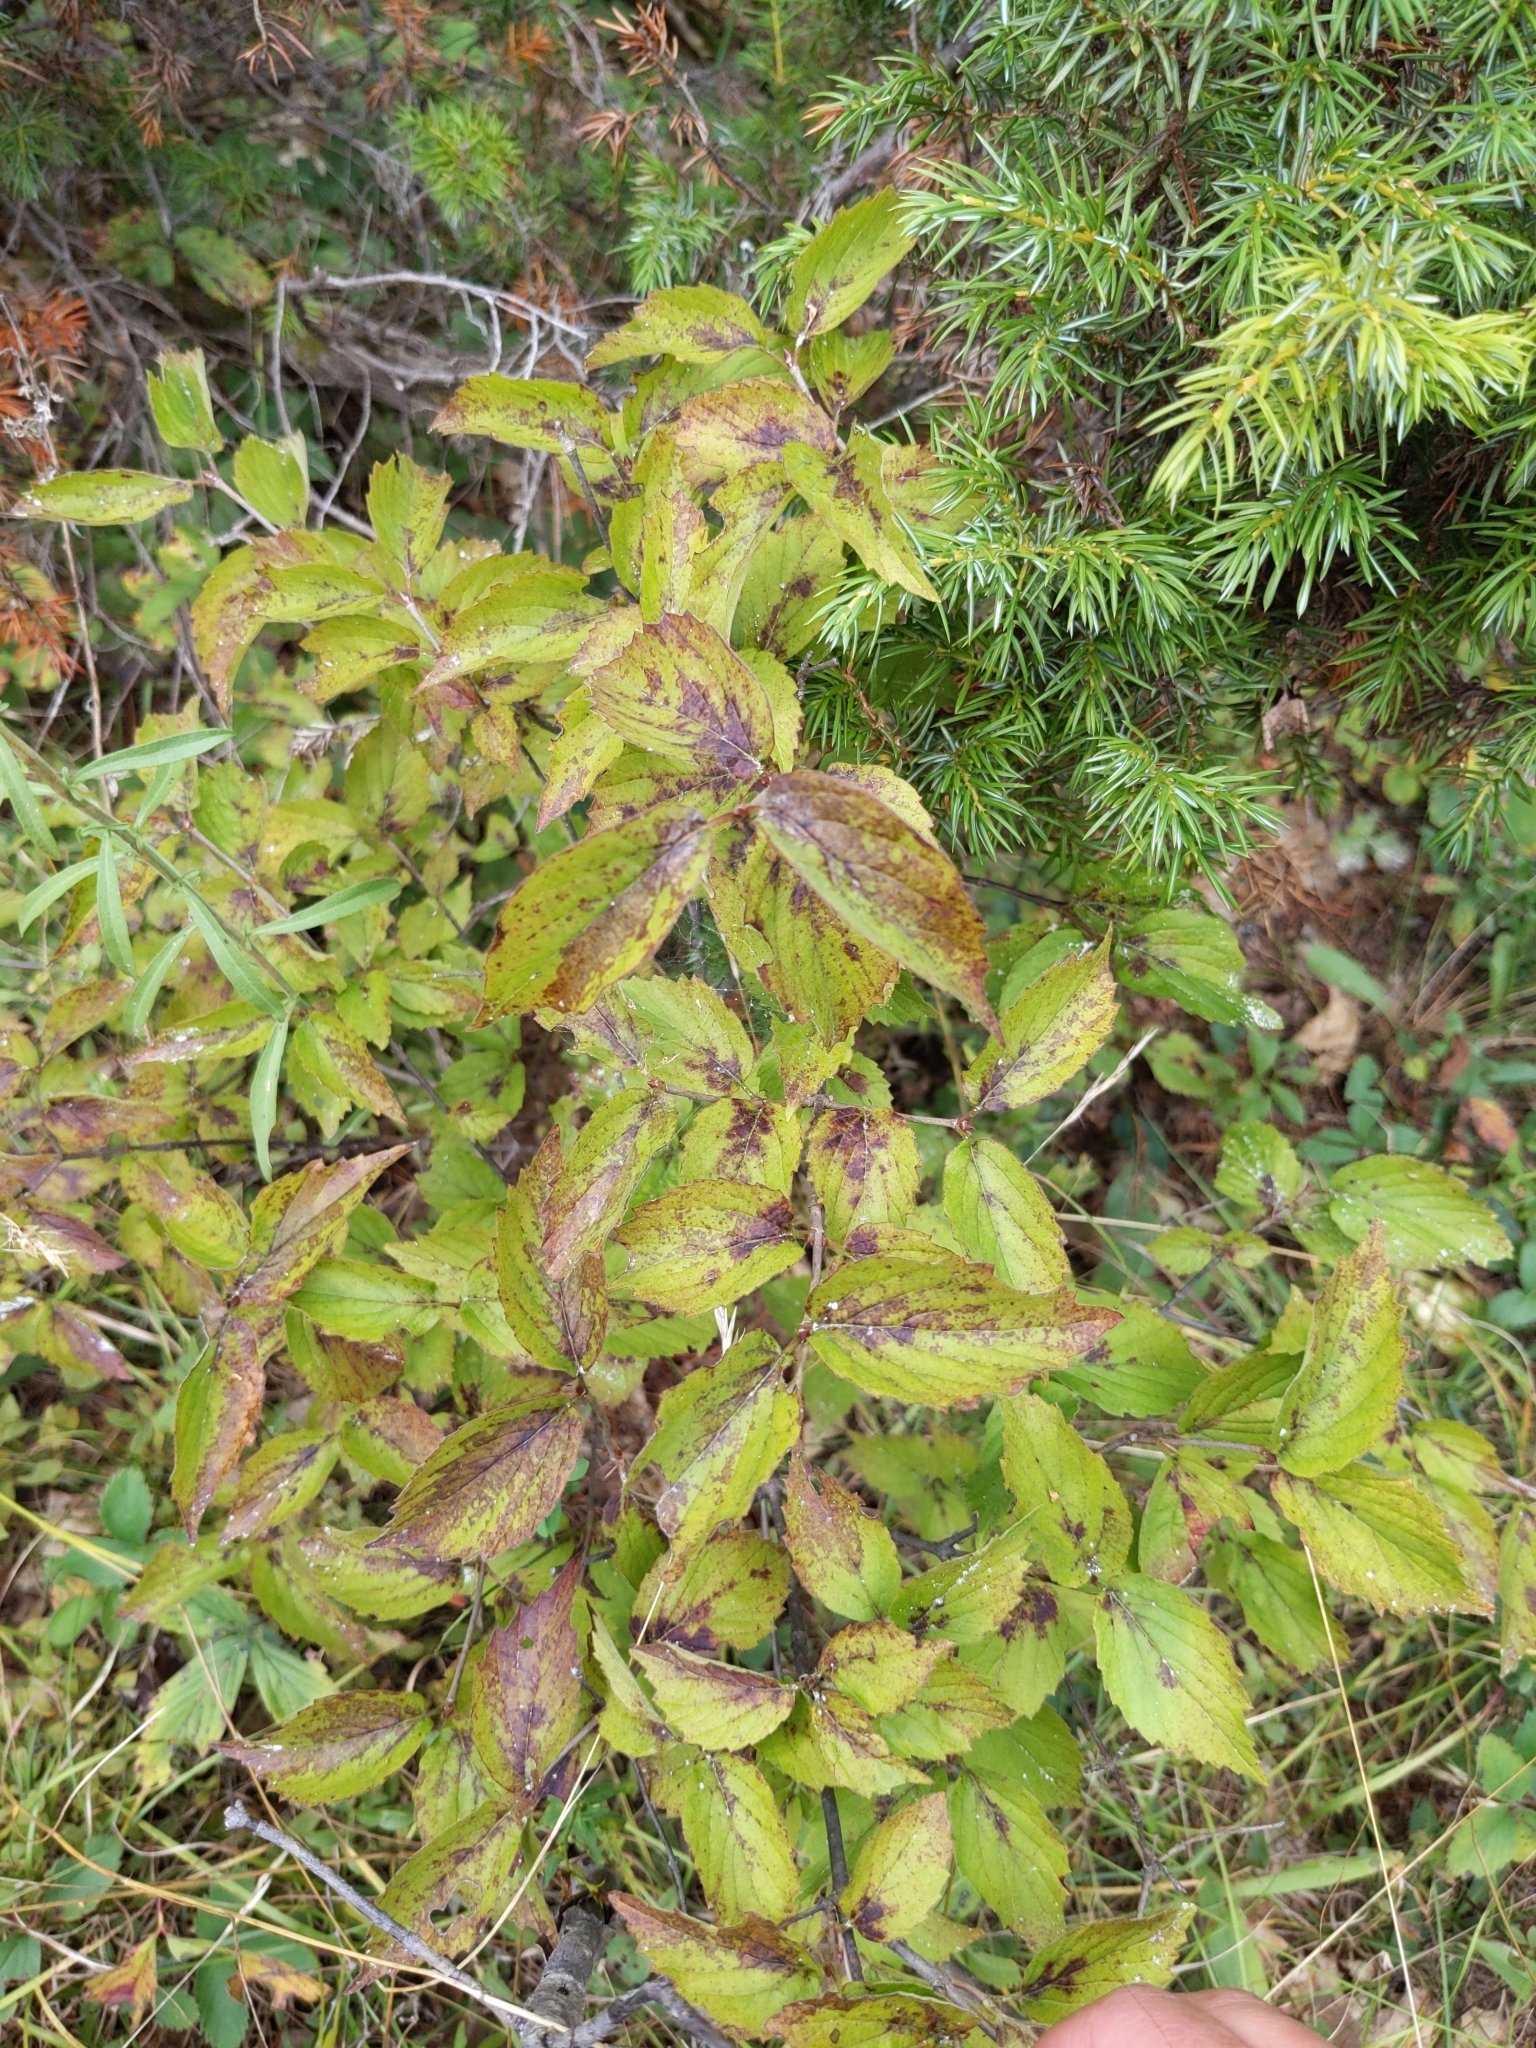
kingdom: Plantae
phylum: Tracheophyta
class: Magnoliopsida
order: Dipsacales
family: Viburnaceae
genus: Viburnum
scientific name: Viburnum rafinesqueanum
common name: Downy arrow-wood
